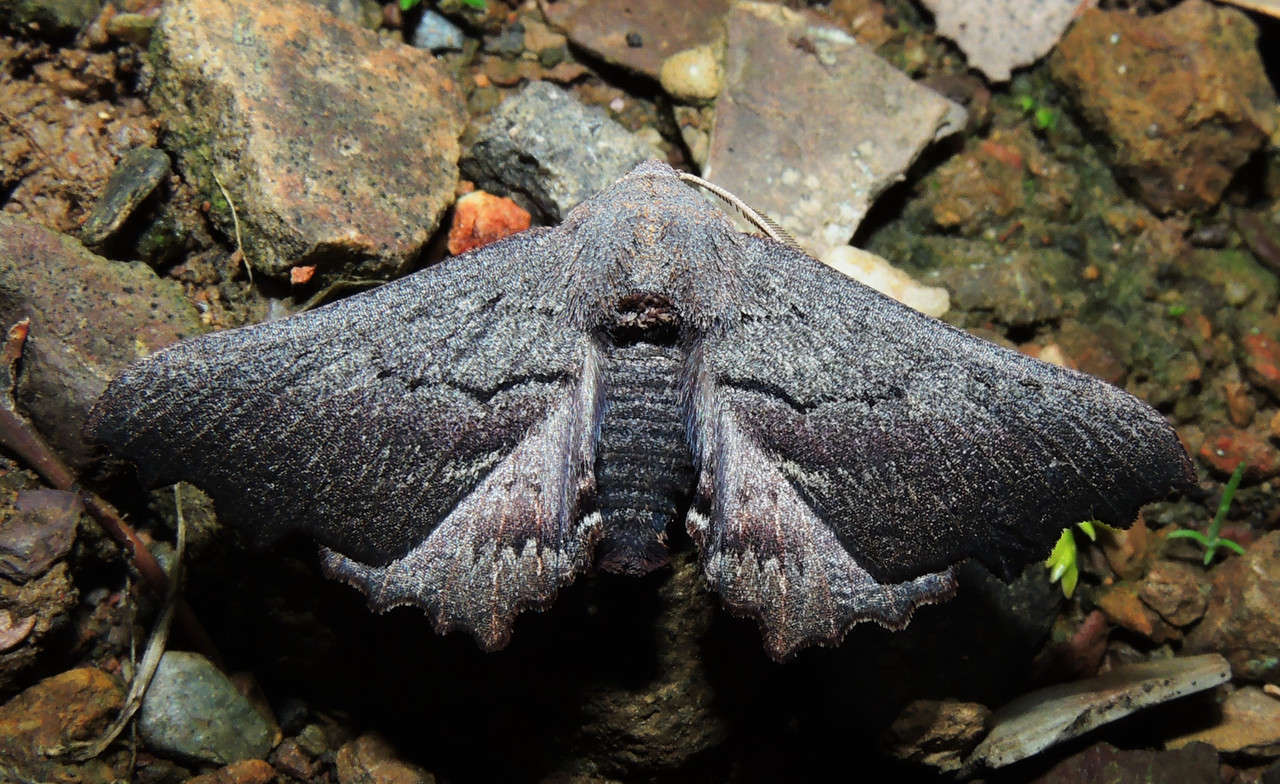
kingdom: Animalia
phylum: Arthropoda
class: Insecta
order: Lepidoptera
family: Geometridae
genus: Amphiclasta
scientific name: Amphiclasta lygaea
